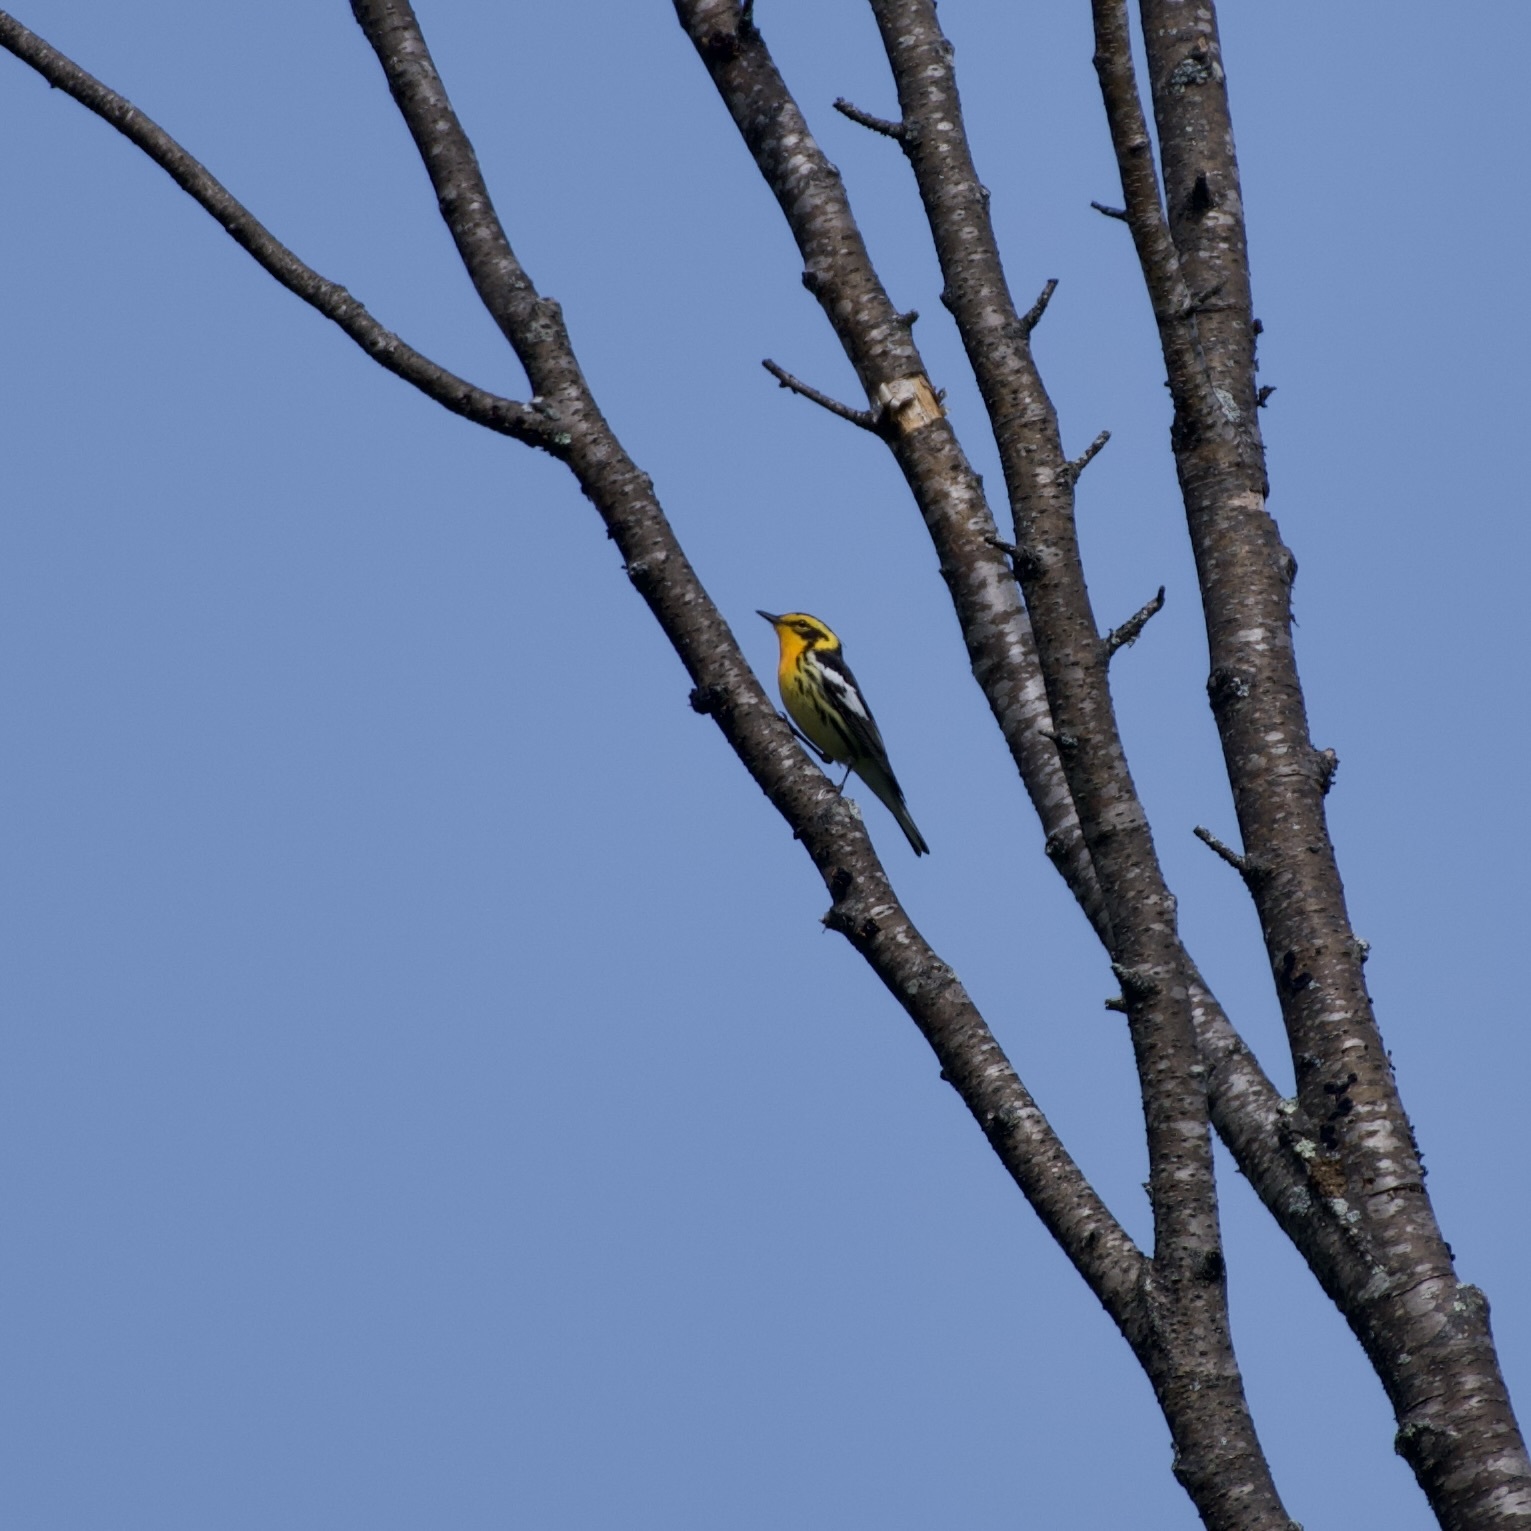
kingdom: Animalia
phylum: Chordata
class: Aves
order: Passeriformes
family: Parulidae
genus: Setophaga
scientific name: Setophaga fusca
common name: Blackburnian warbler
